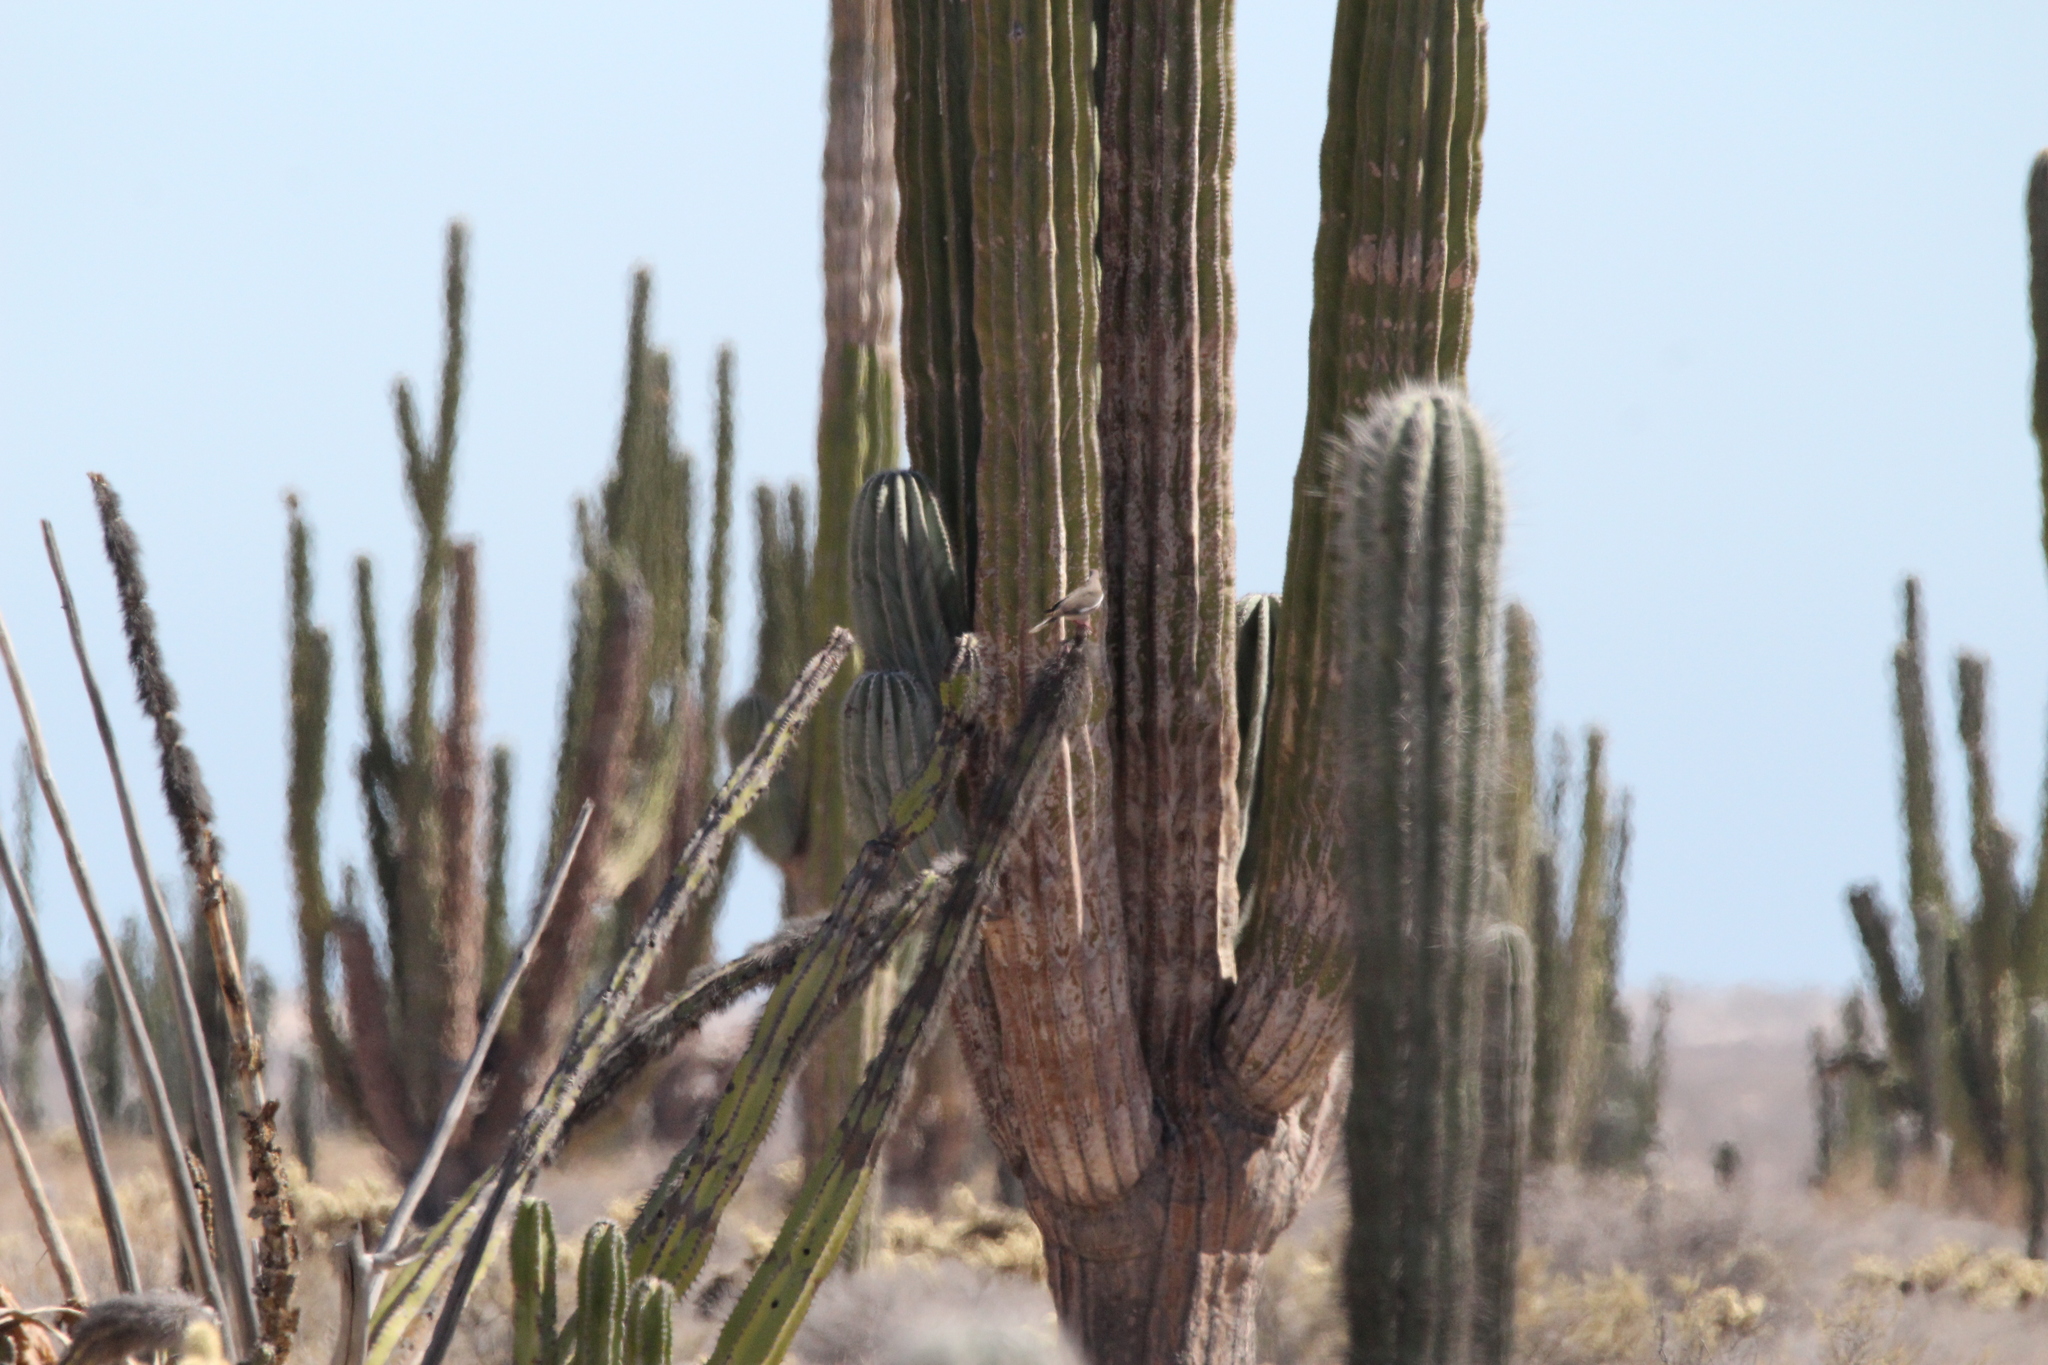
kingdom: Animalia
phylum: Chordata
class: Aves
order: Columbiformes
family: Columbidae
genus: Zenaida
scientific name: Zenaida asiatica
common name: White-winged dove
